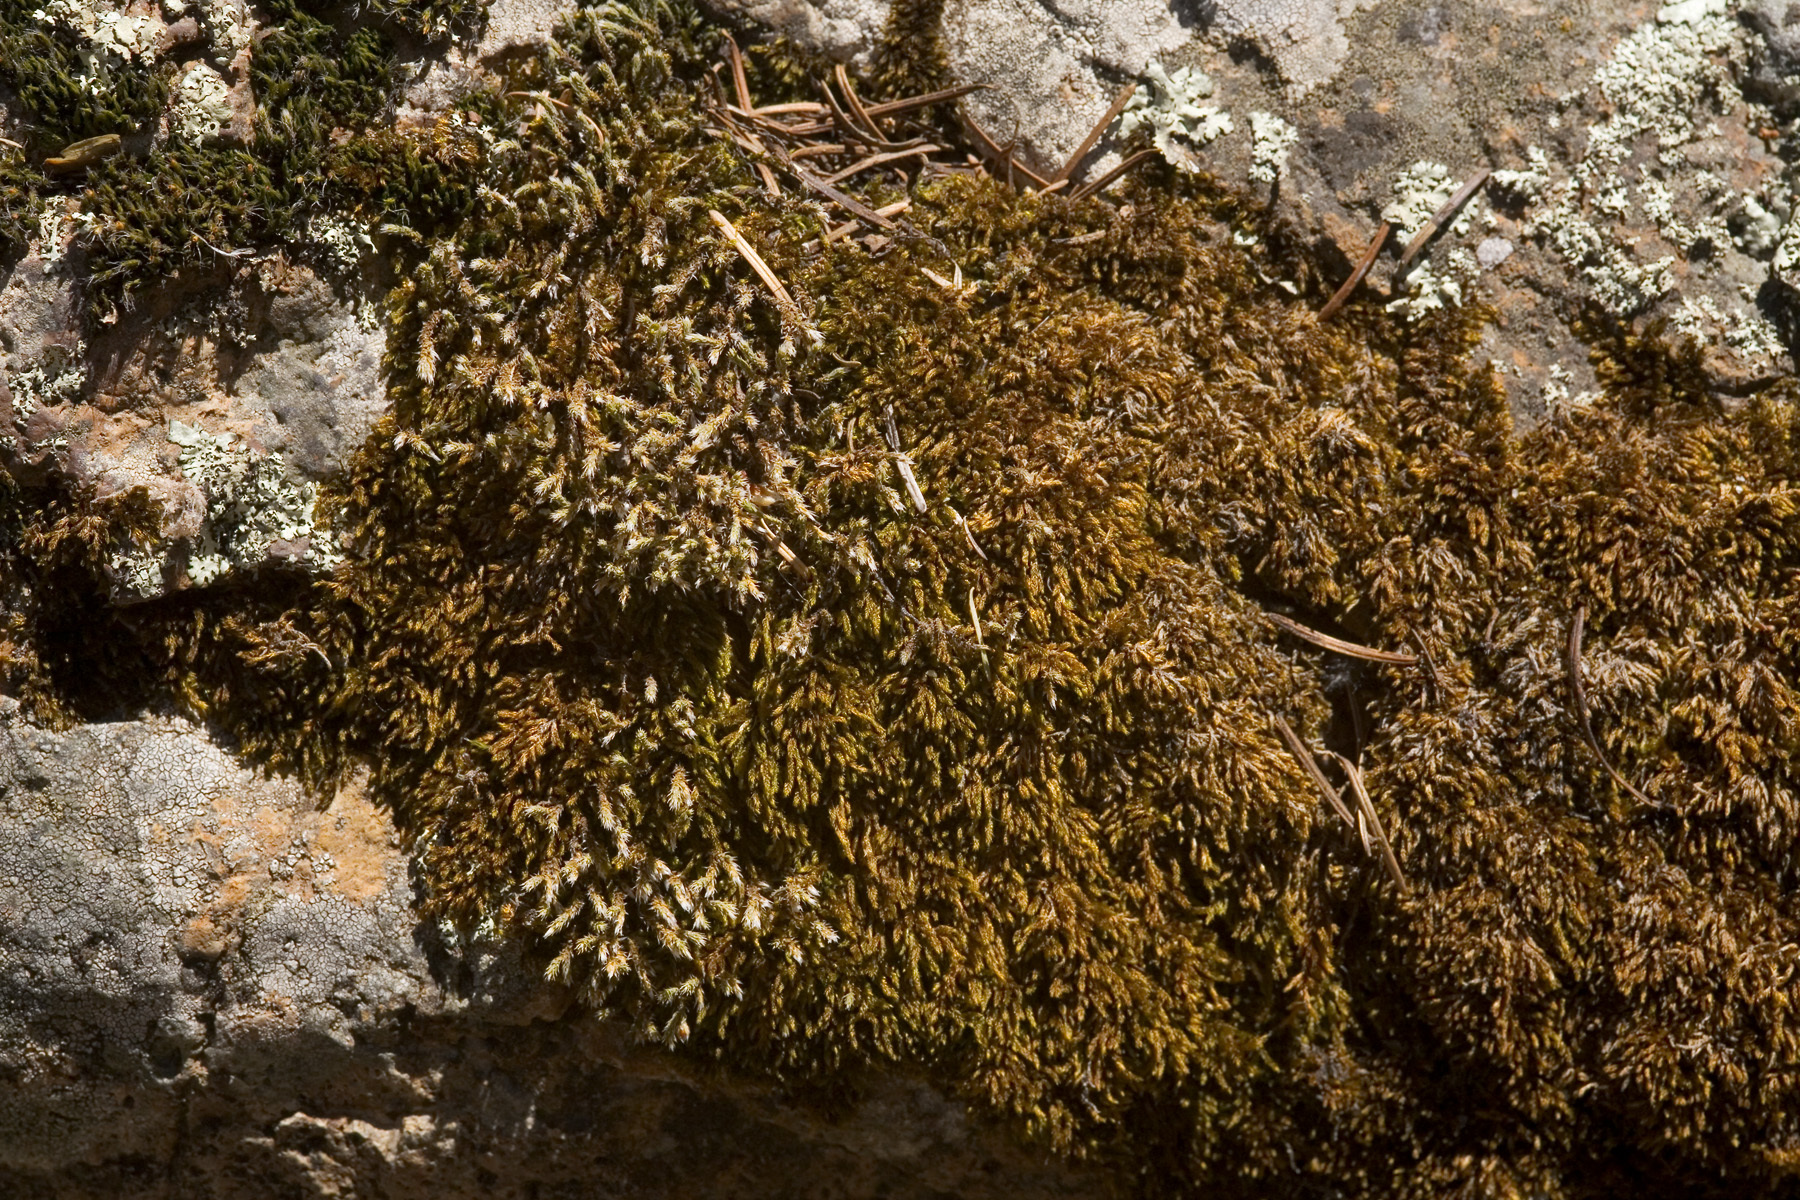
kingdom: Plantae
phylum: Bryophyta
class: Bryopsida
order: Hedwigiales
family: Hedwigiaceae
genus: Hedwigia
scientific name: Hedwigia ciliata
